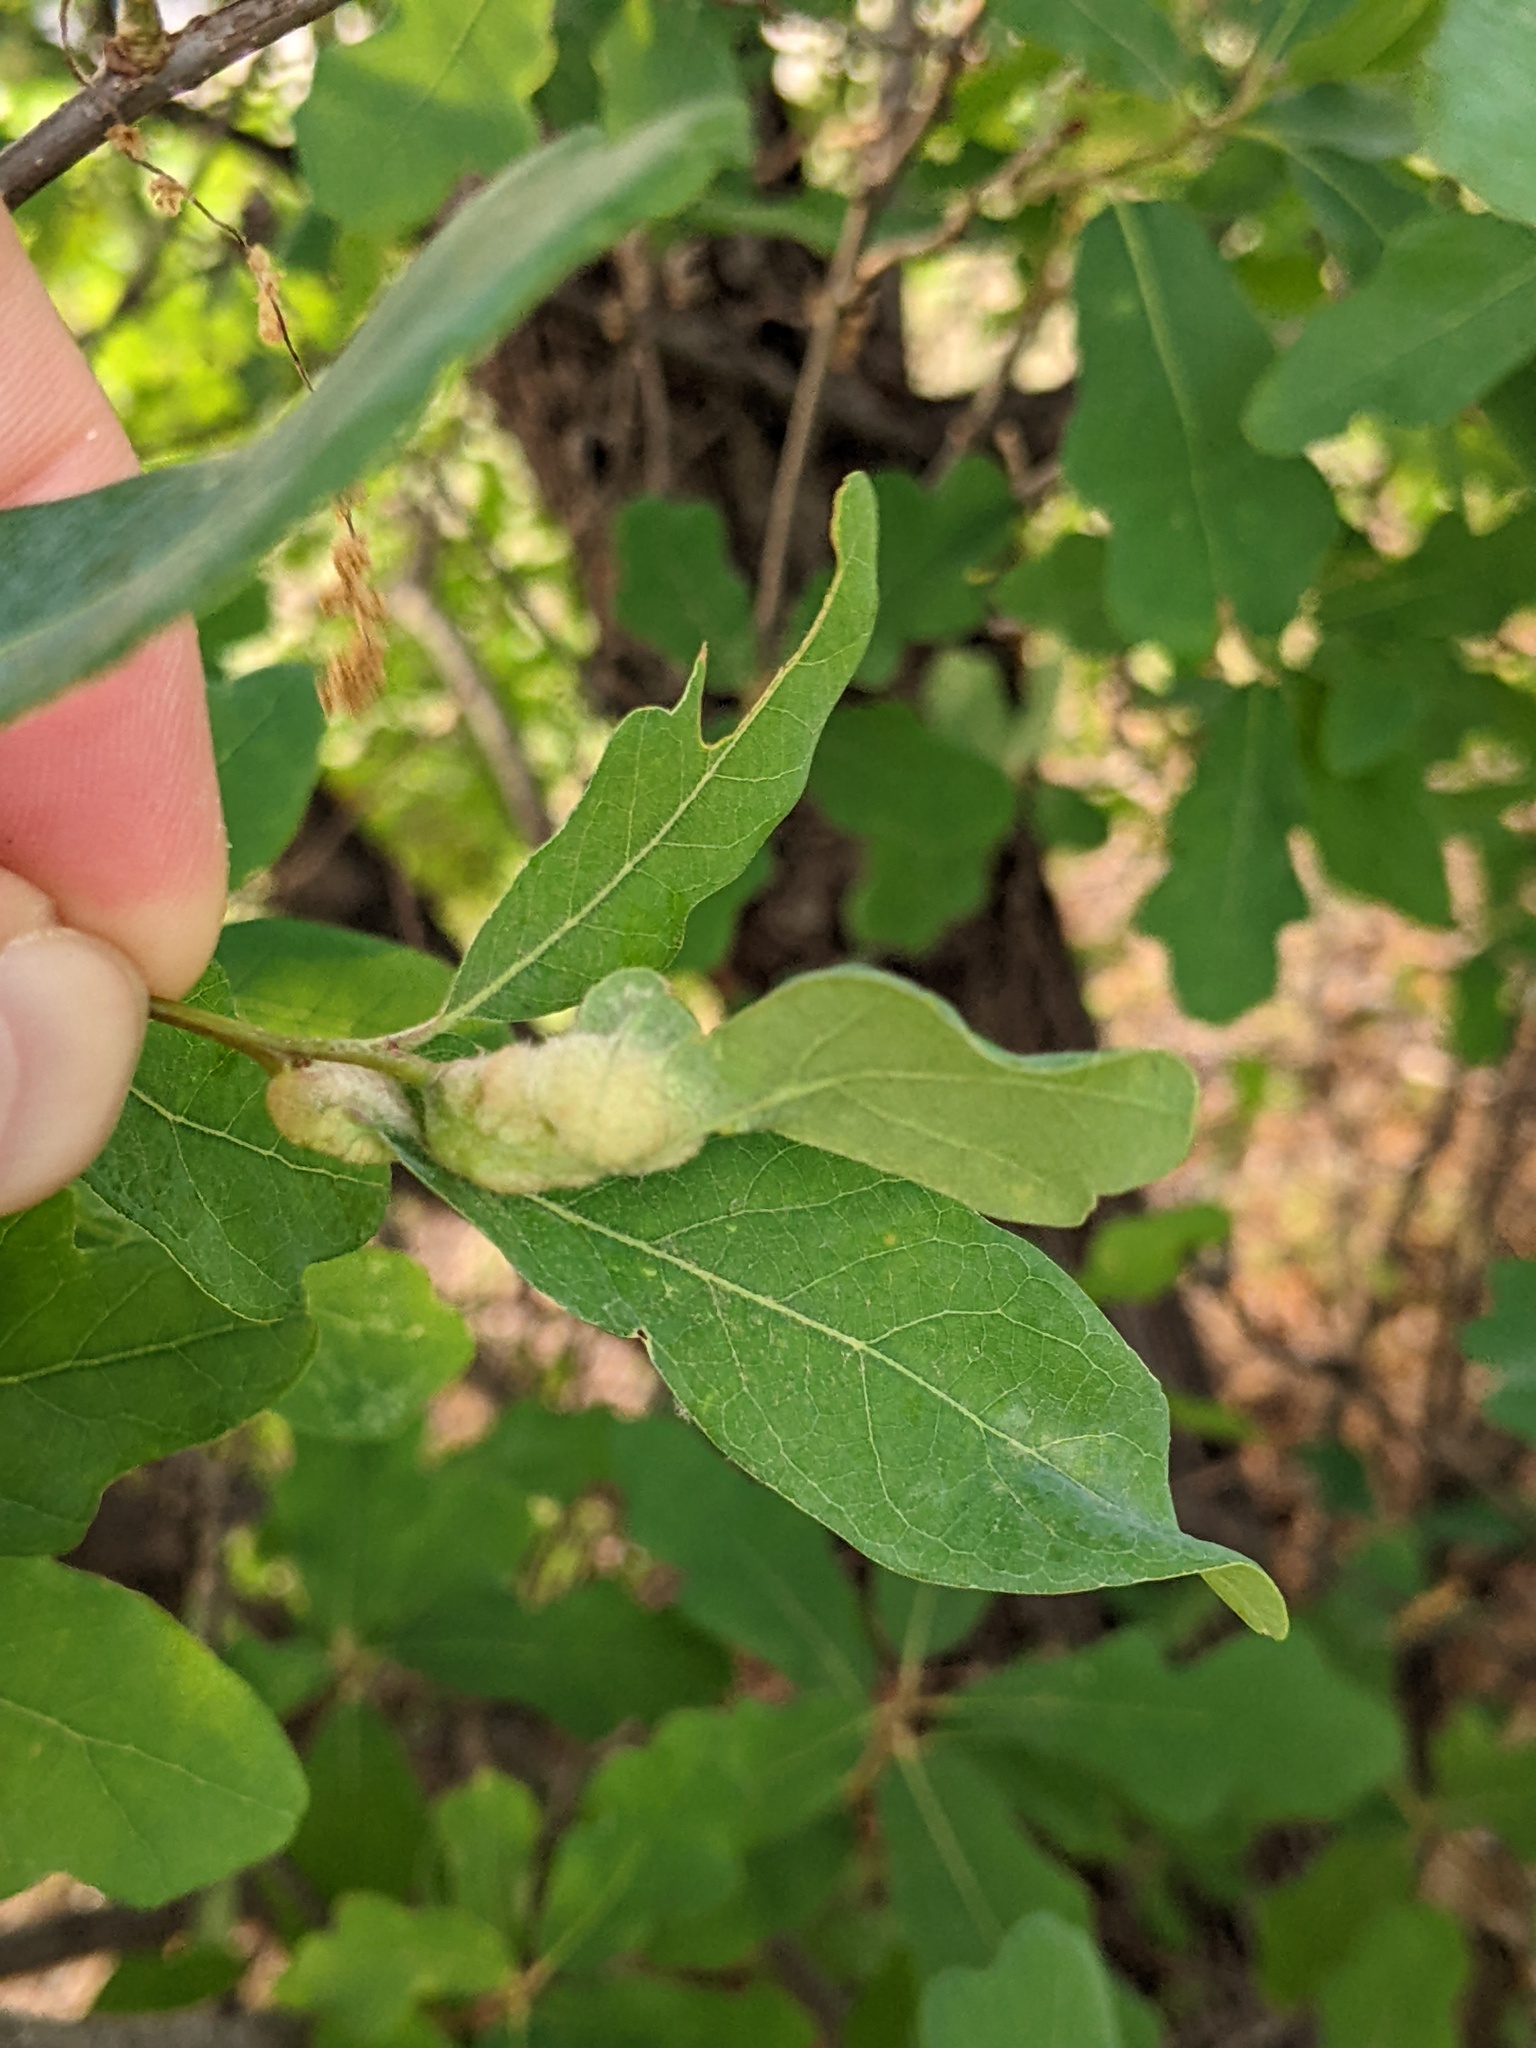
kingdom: Animalia
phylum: Arthropoda
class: Insecta
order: Hymenoptera
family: Cynipidae
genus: Neuroterus
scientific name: Neuroterus
